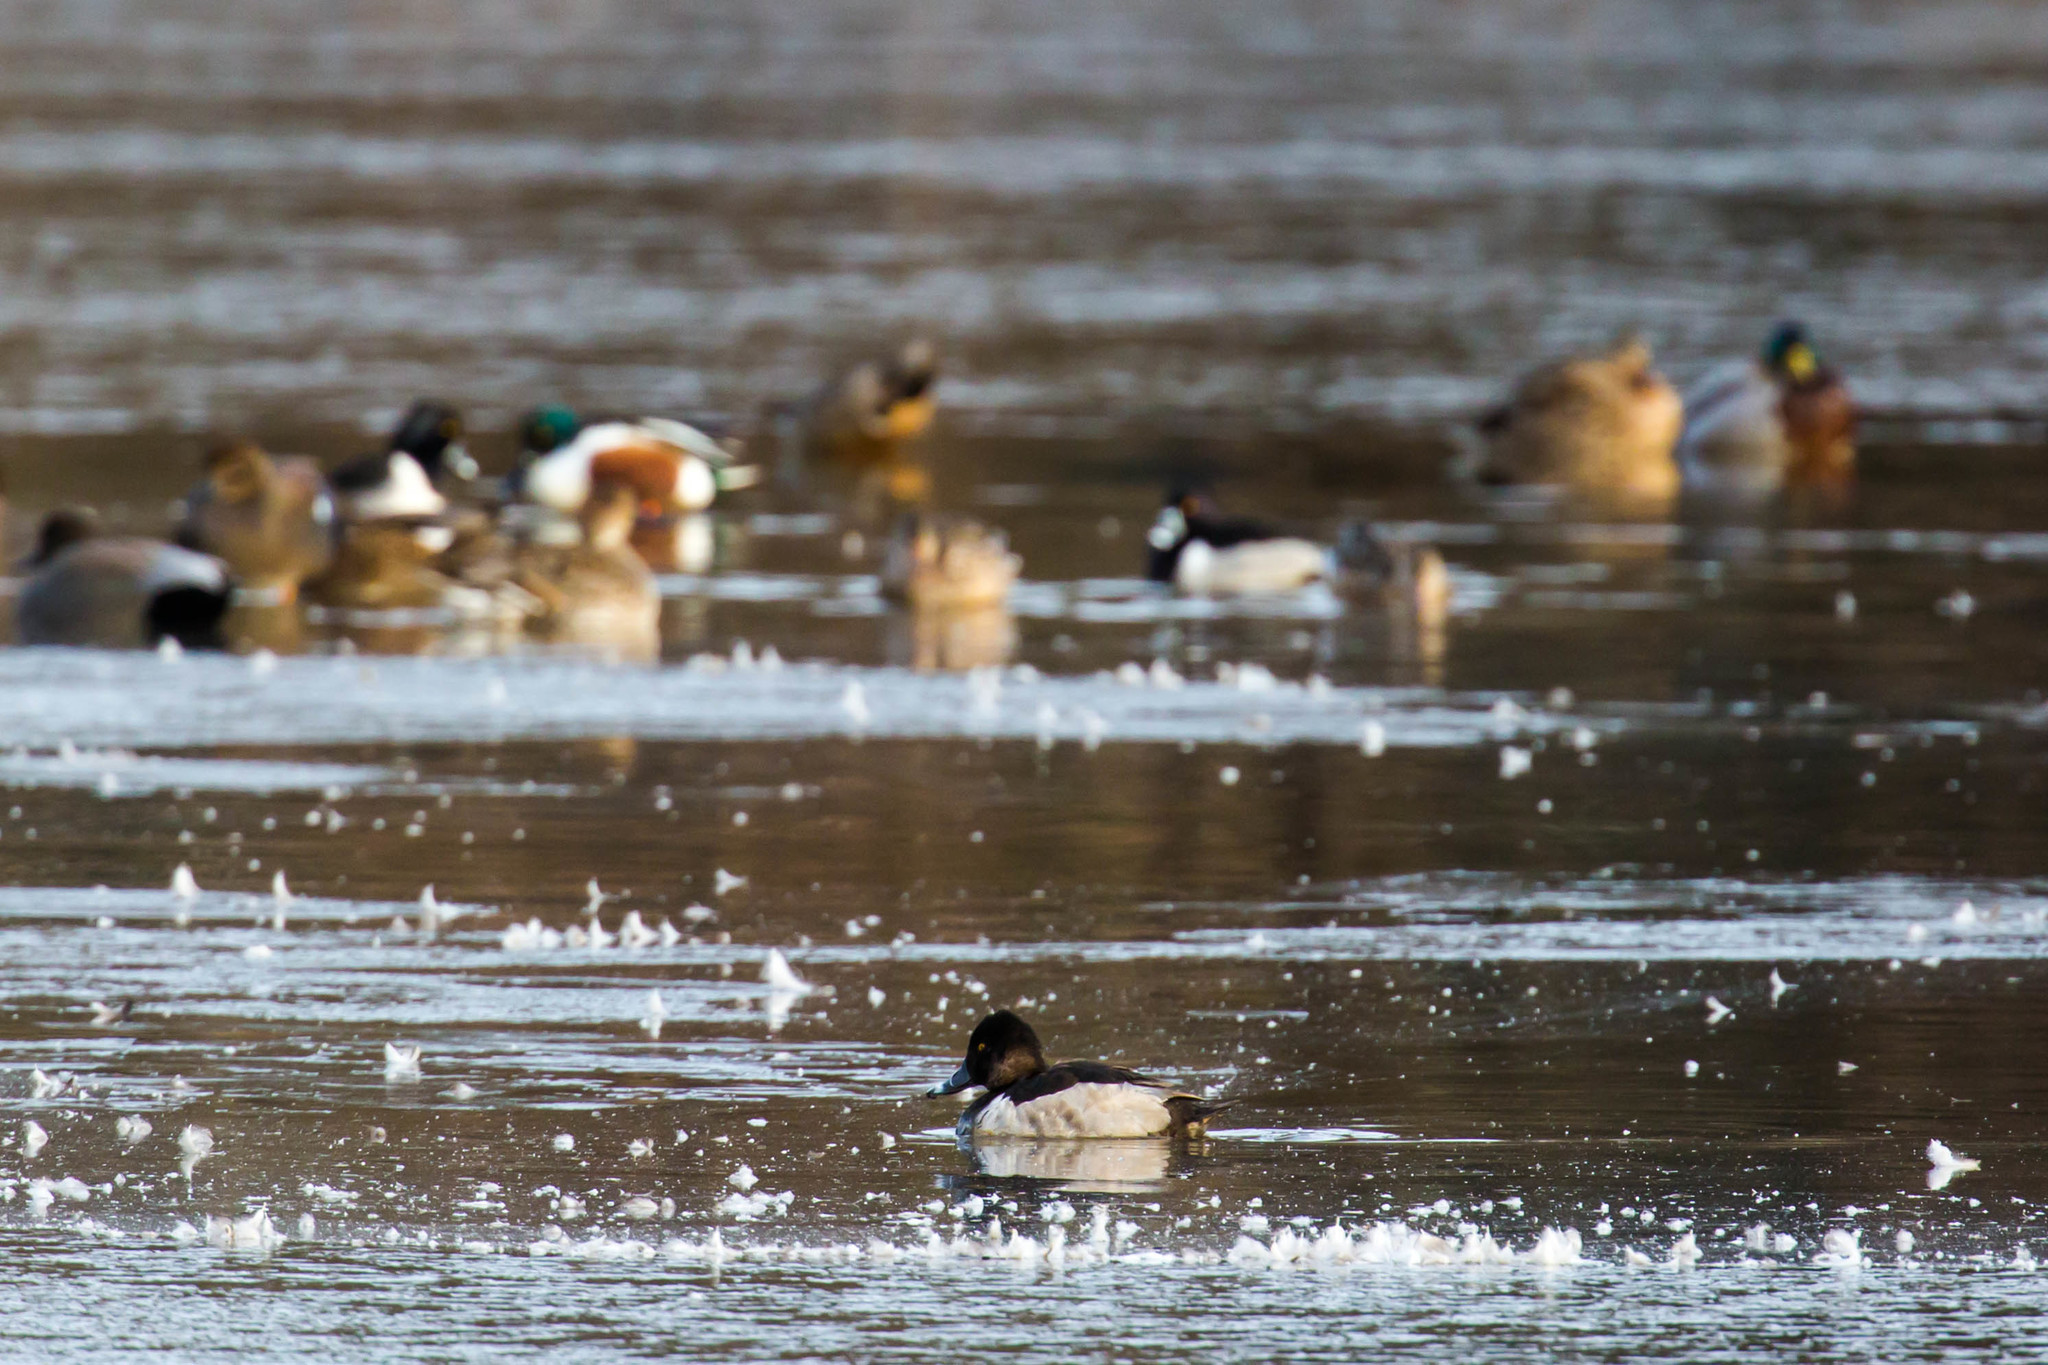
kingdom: Animalia
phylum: Chordata
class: Aves
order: Anseriformes
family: Anatidae
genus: Aythya
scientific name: Aythya collaris
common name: Ring-necked duck
